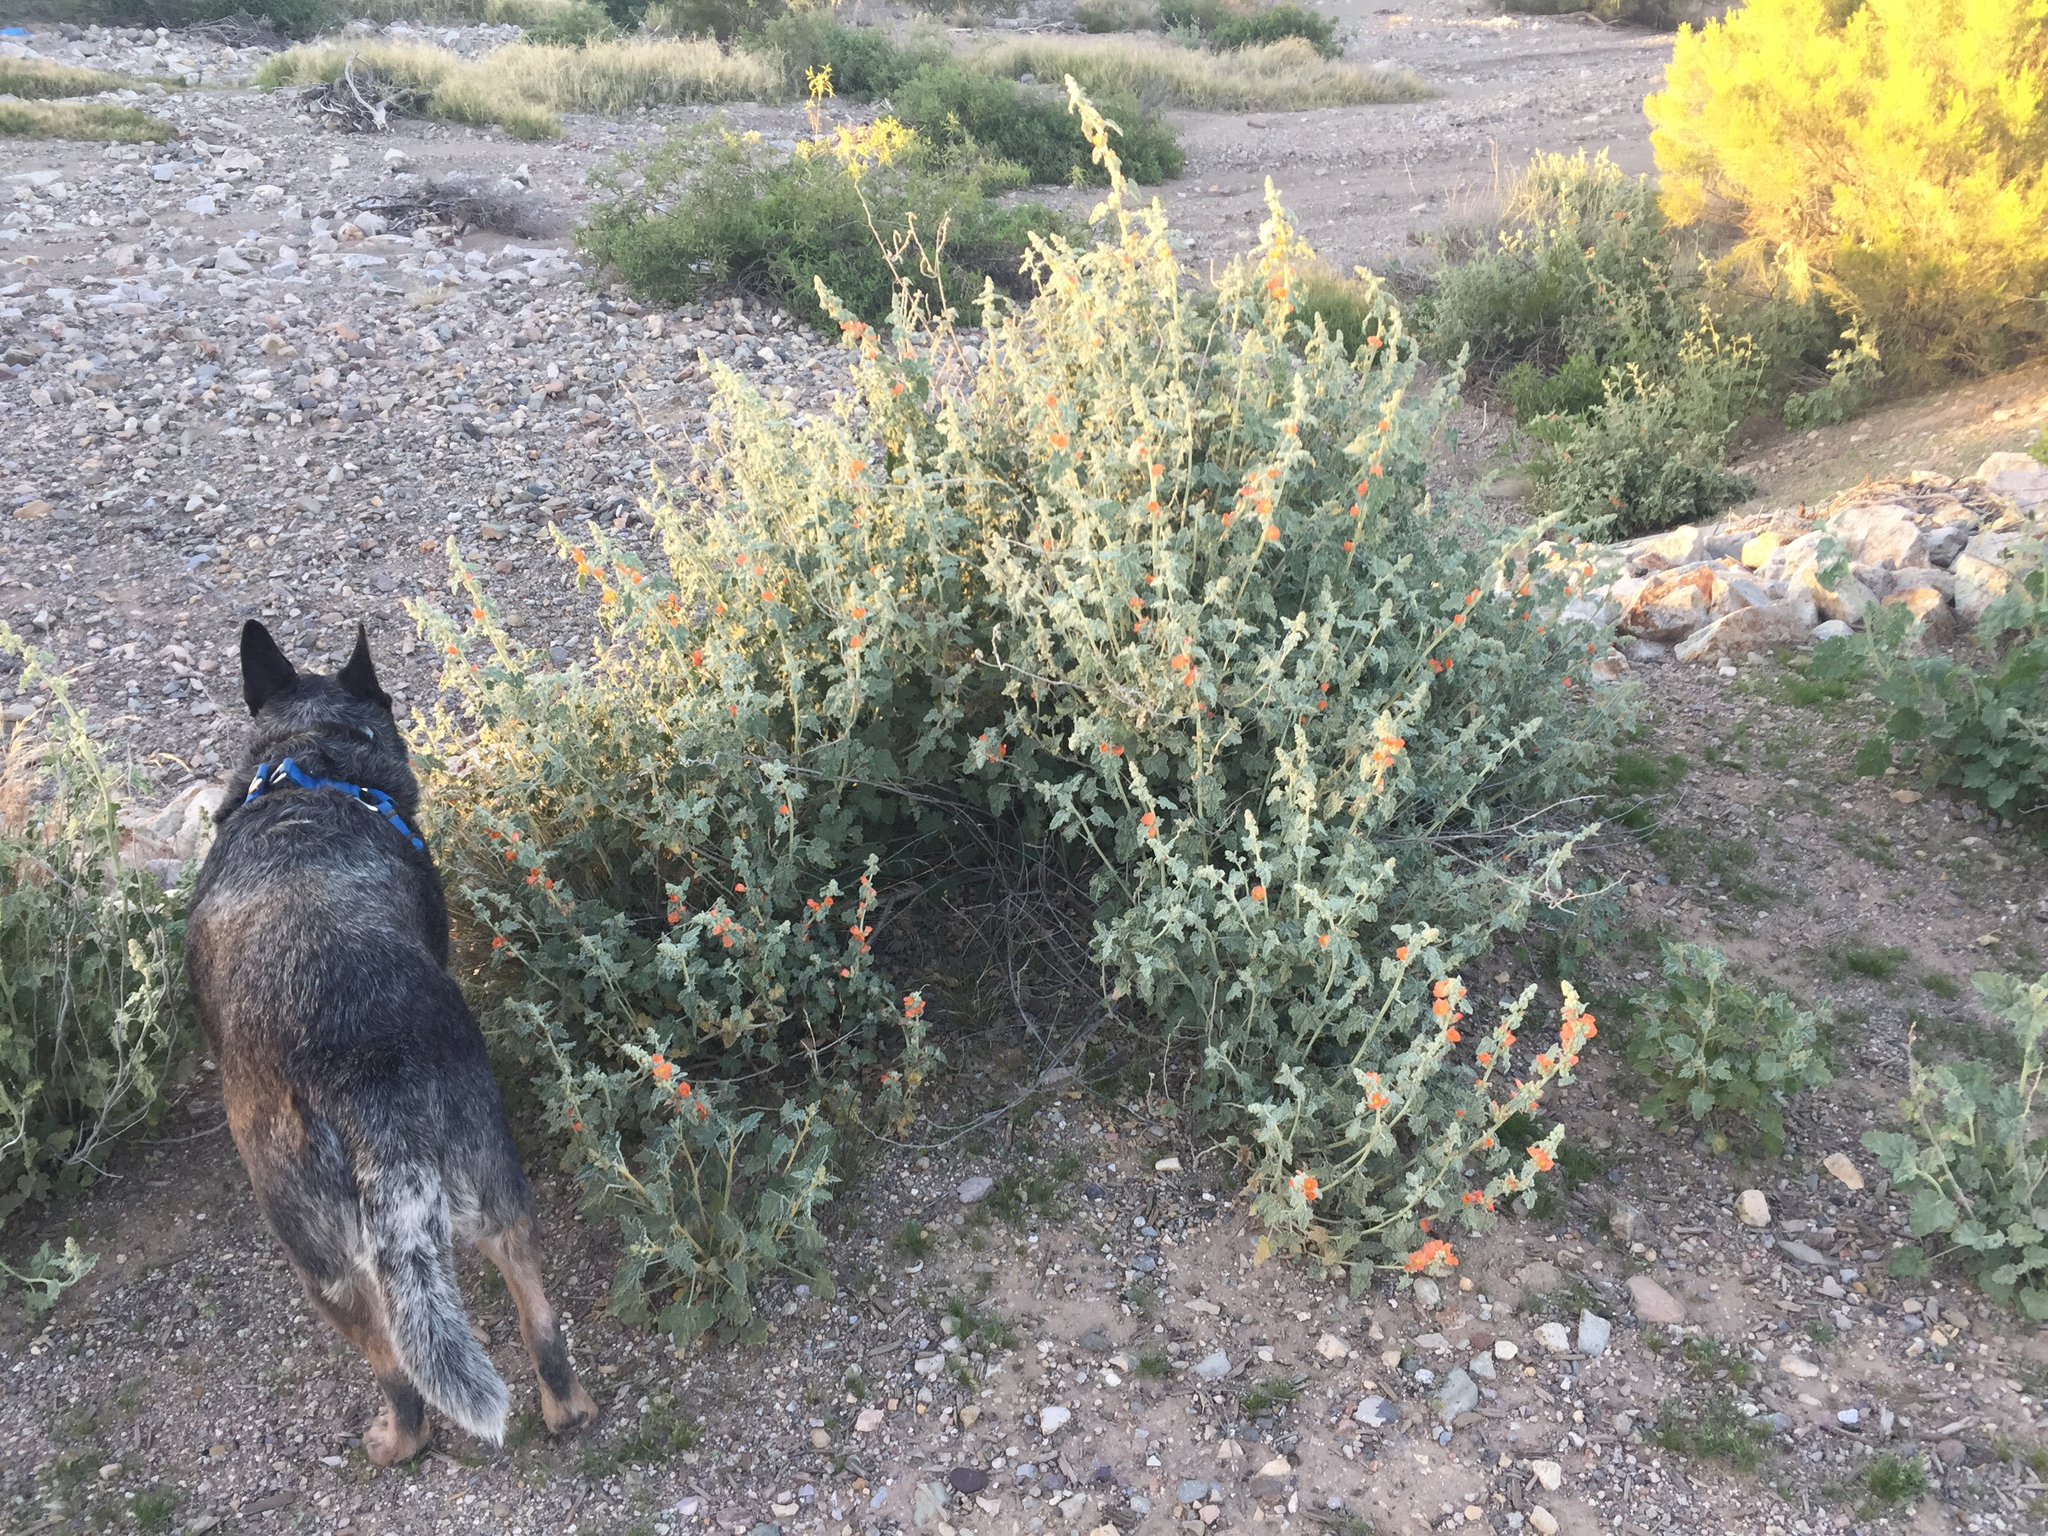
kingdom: Plantae
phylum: Tracheophyta
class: Magnoliopsida
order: Malvales
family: Malvaceae
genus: Sphaeralcea
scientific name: Sphaeralcea ambigua
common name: Apricot globe-mallow
